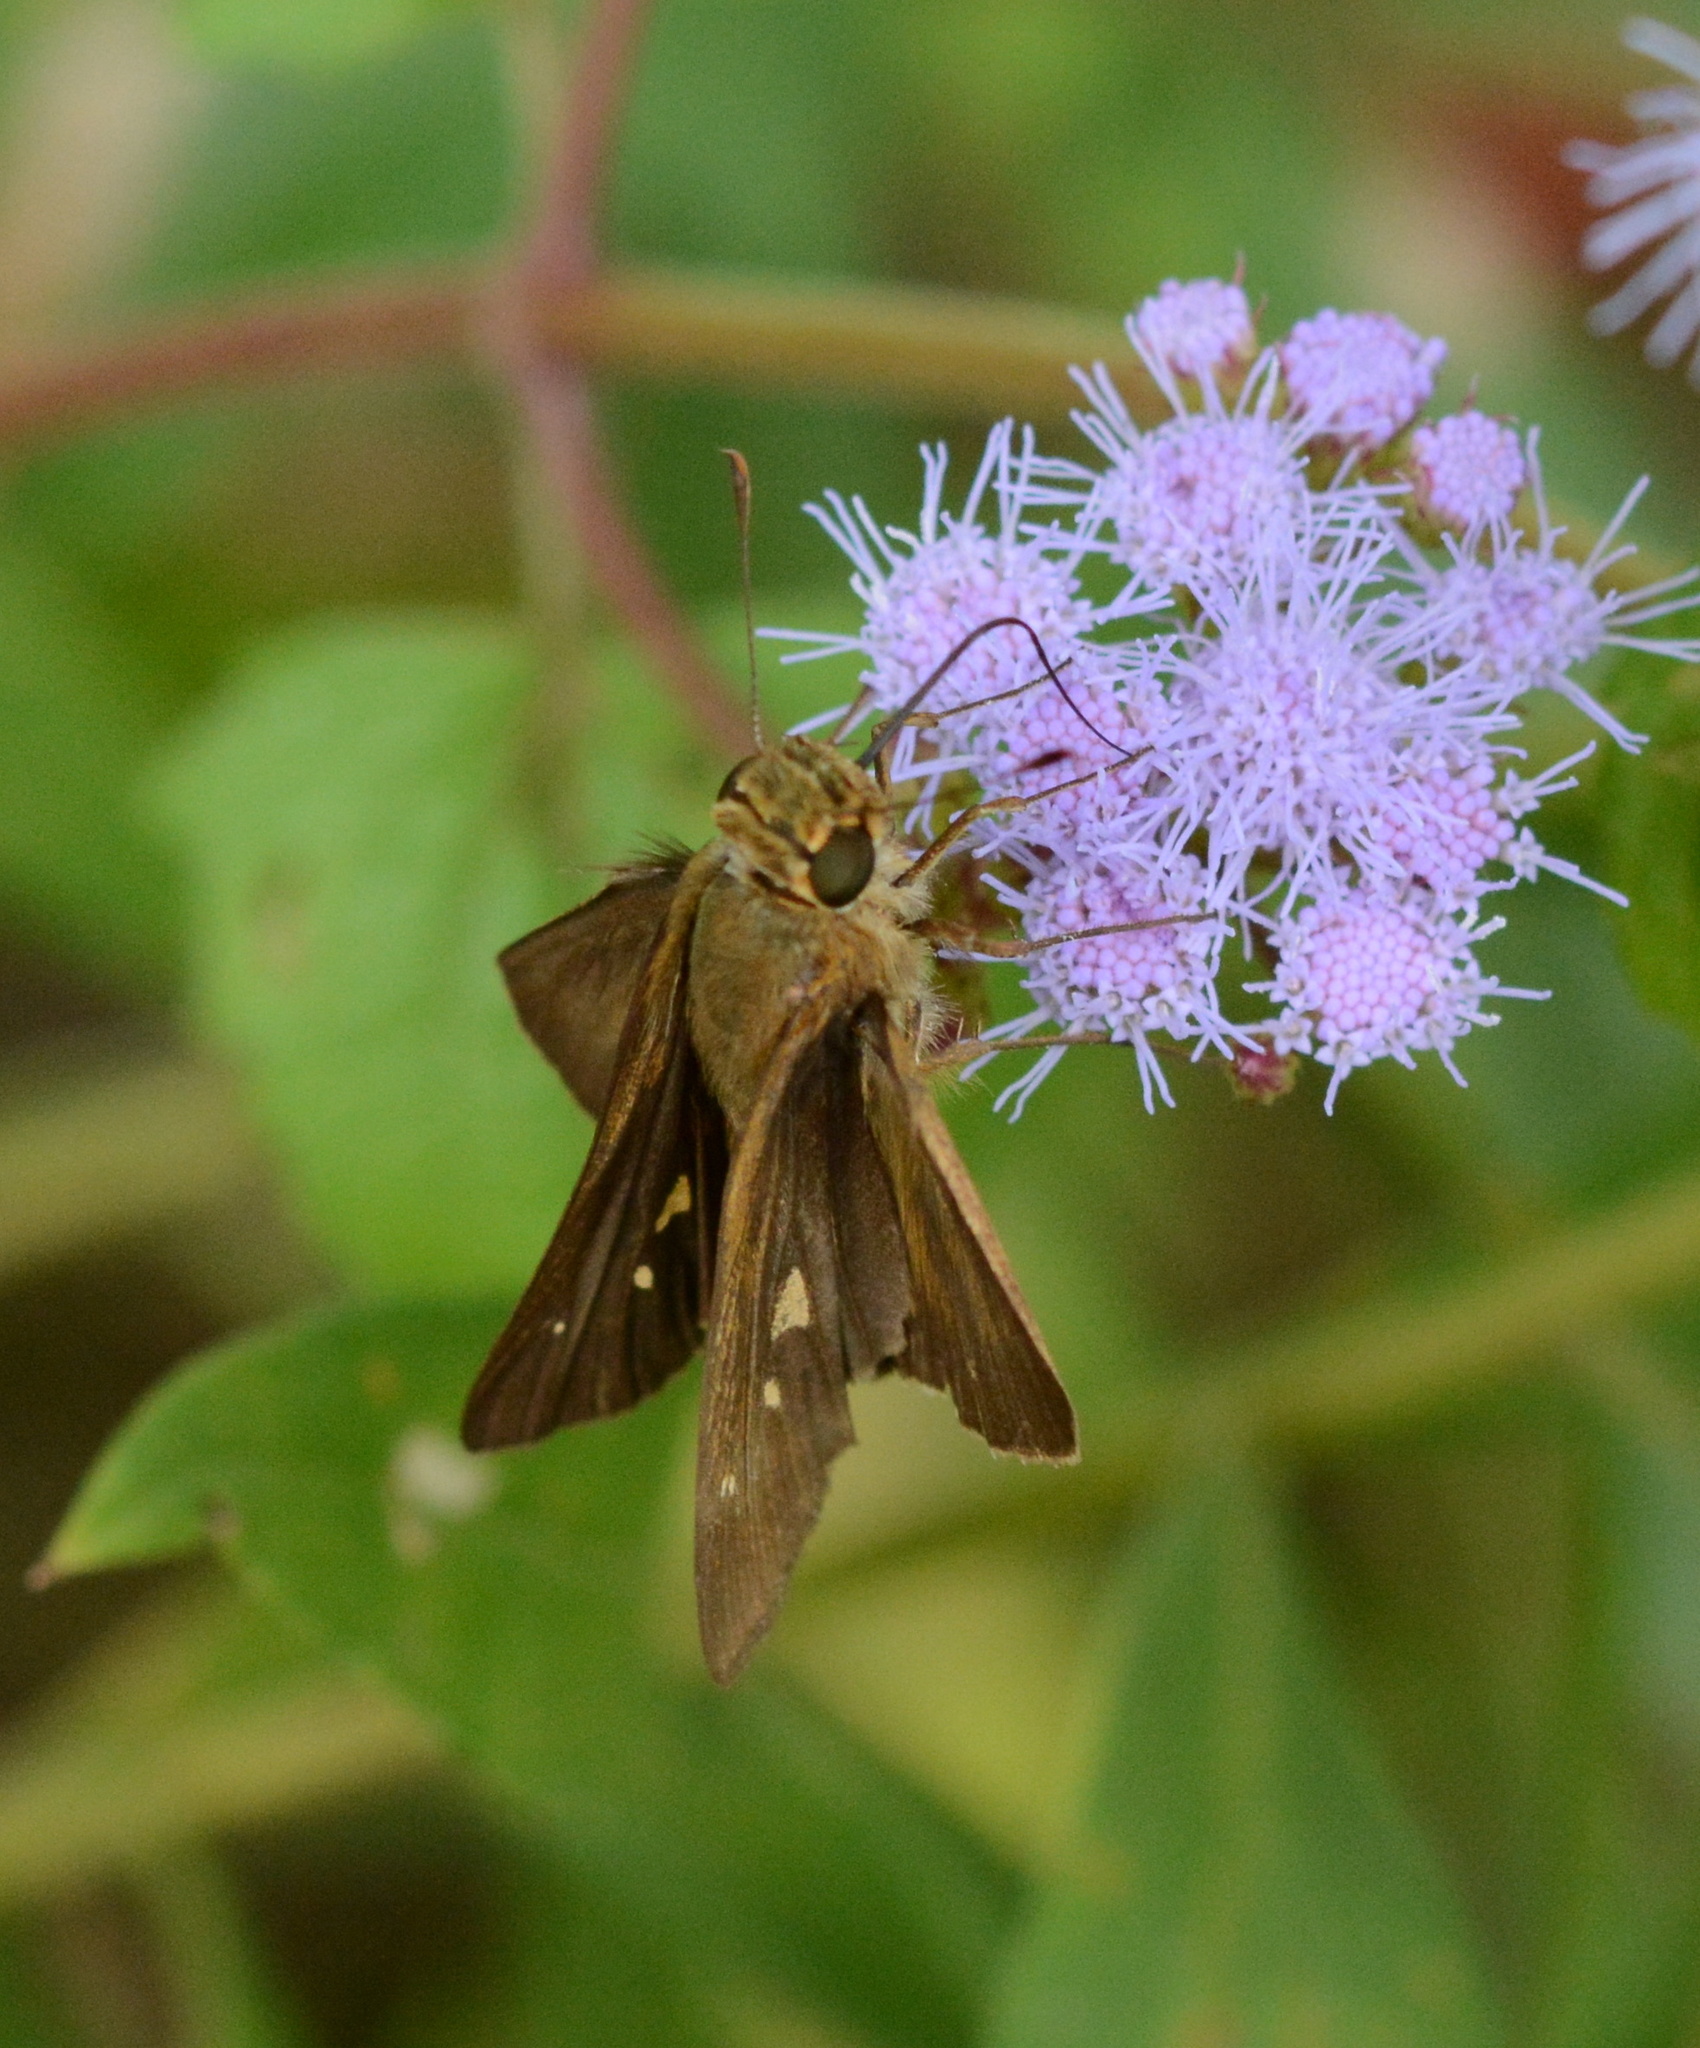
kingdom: Animalia
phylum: Arthropoda
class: Insecta
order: Lepidoptera
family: Hesperiidae
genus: Panoquina
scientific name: Panoquina ocola
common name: Ocola skipper
